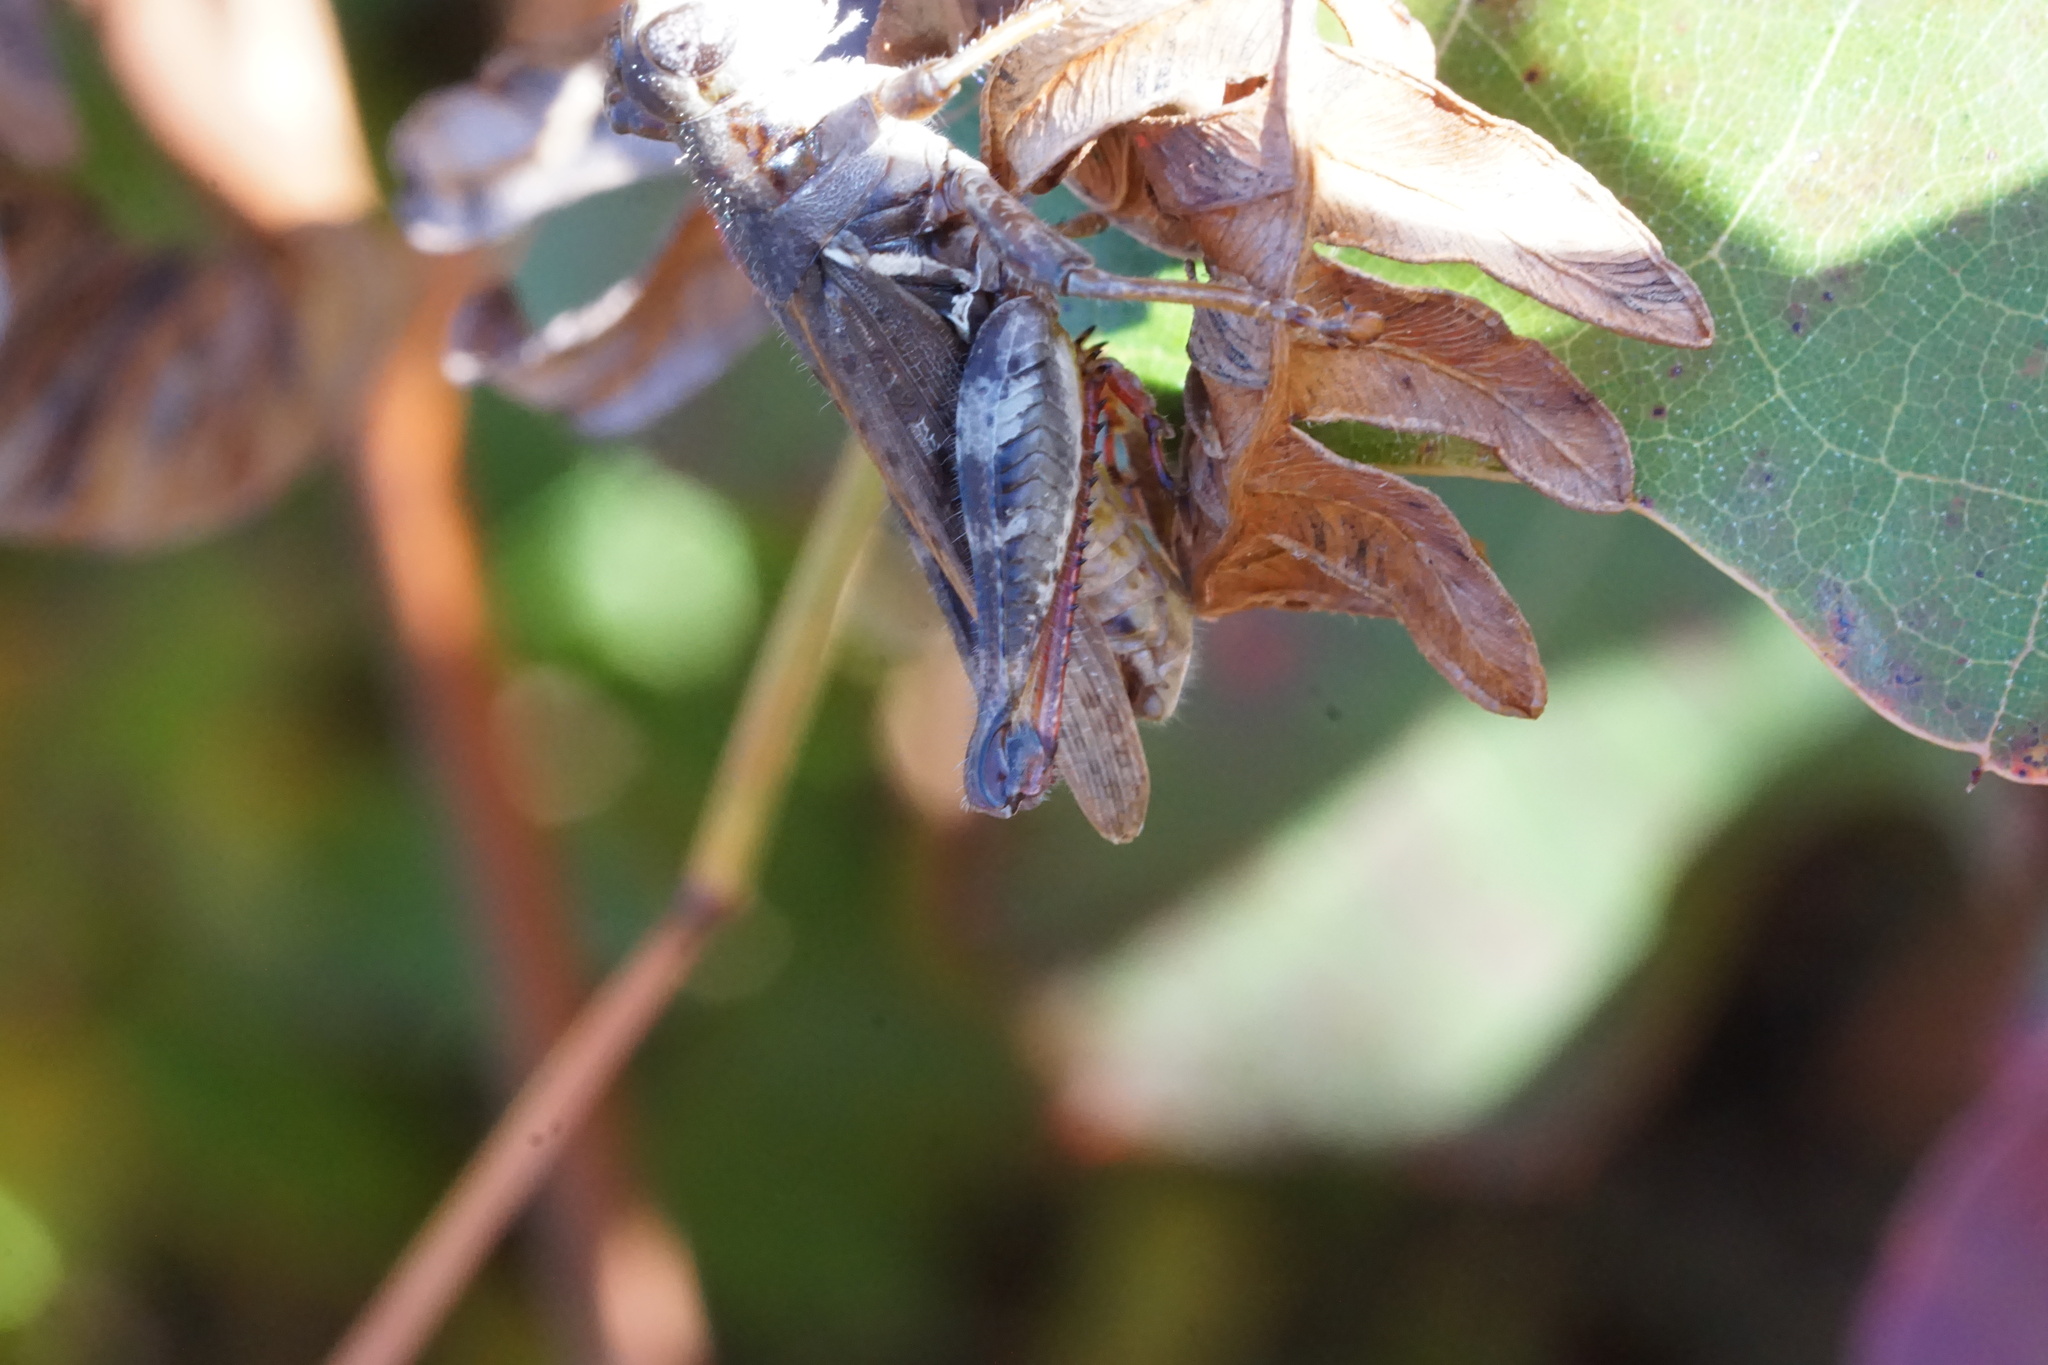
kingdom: Animalia
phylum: Arthropoda
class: Insecta
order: Orthoptera
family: Acrididae
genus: Melanoplus
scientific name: Melanoplus keeleri
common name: Keeler grasshopper
